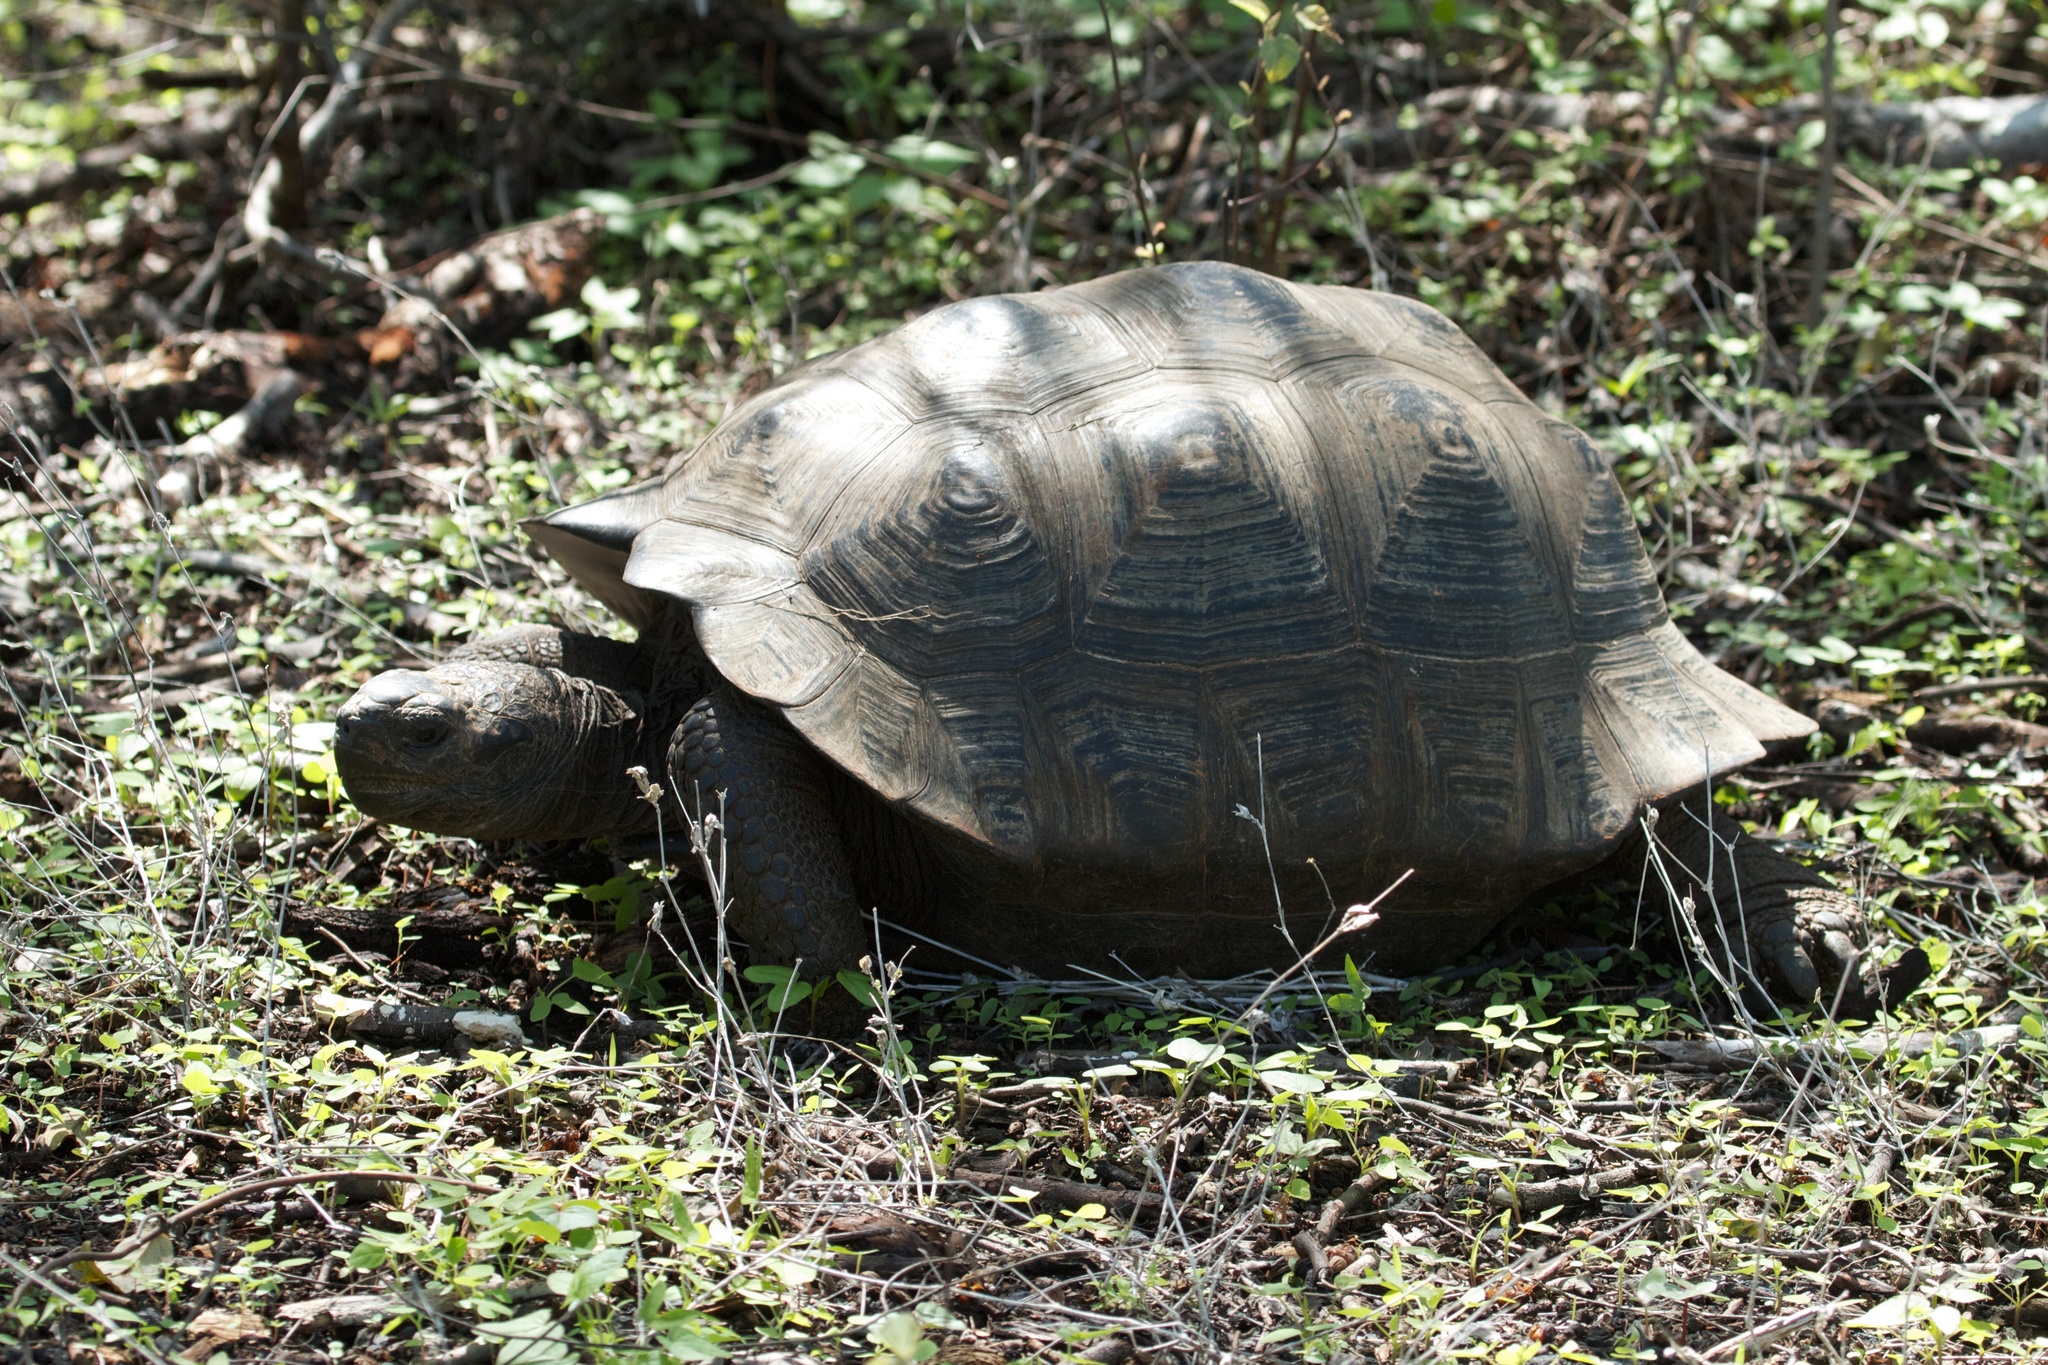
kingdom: Animalia
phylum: Chordata
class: Testudines
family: Testudinidae
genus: Chelonoidis
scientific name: Chelonoidis vandenburghi
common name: Alcedo volcano giant tortoise
